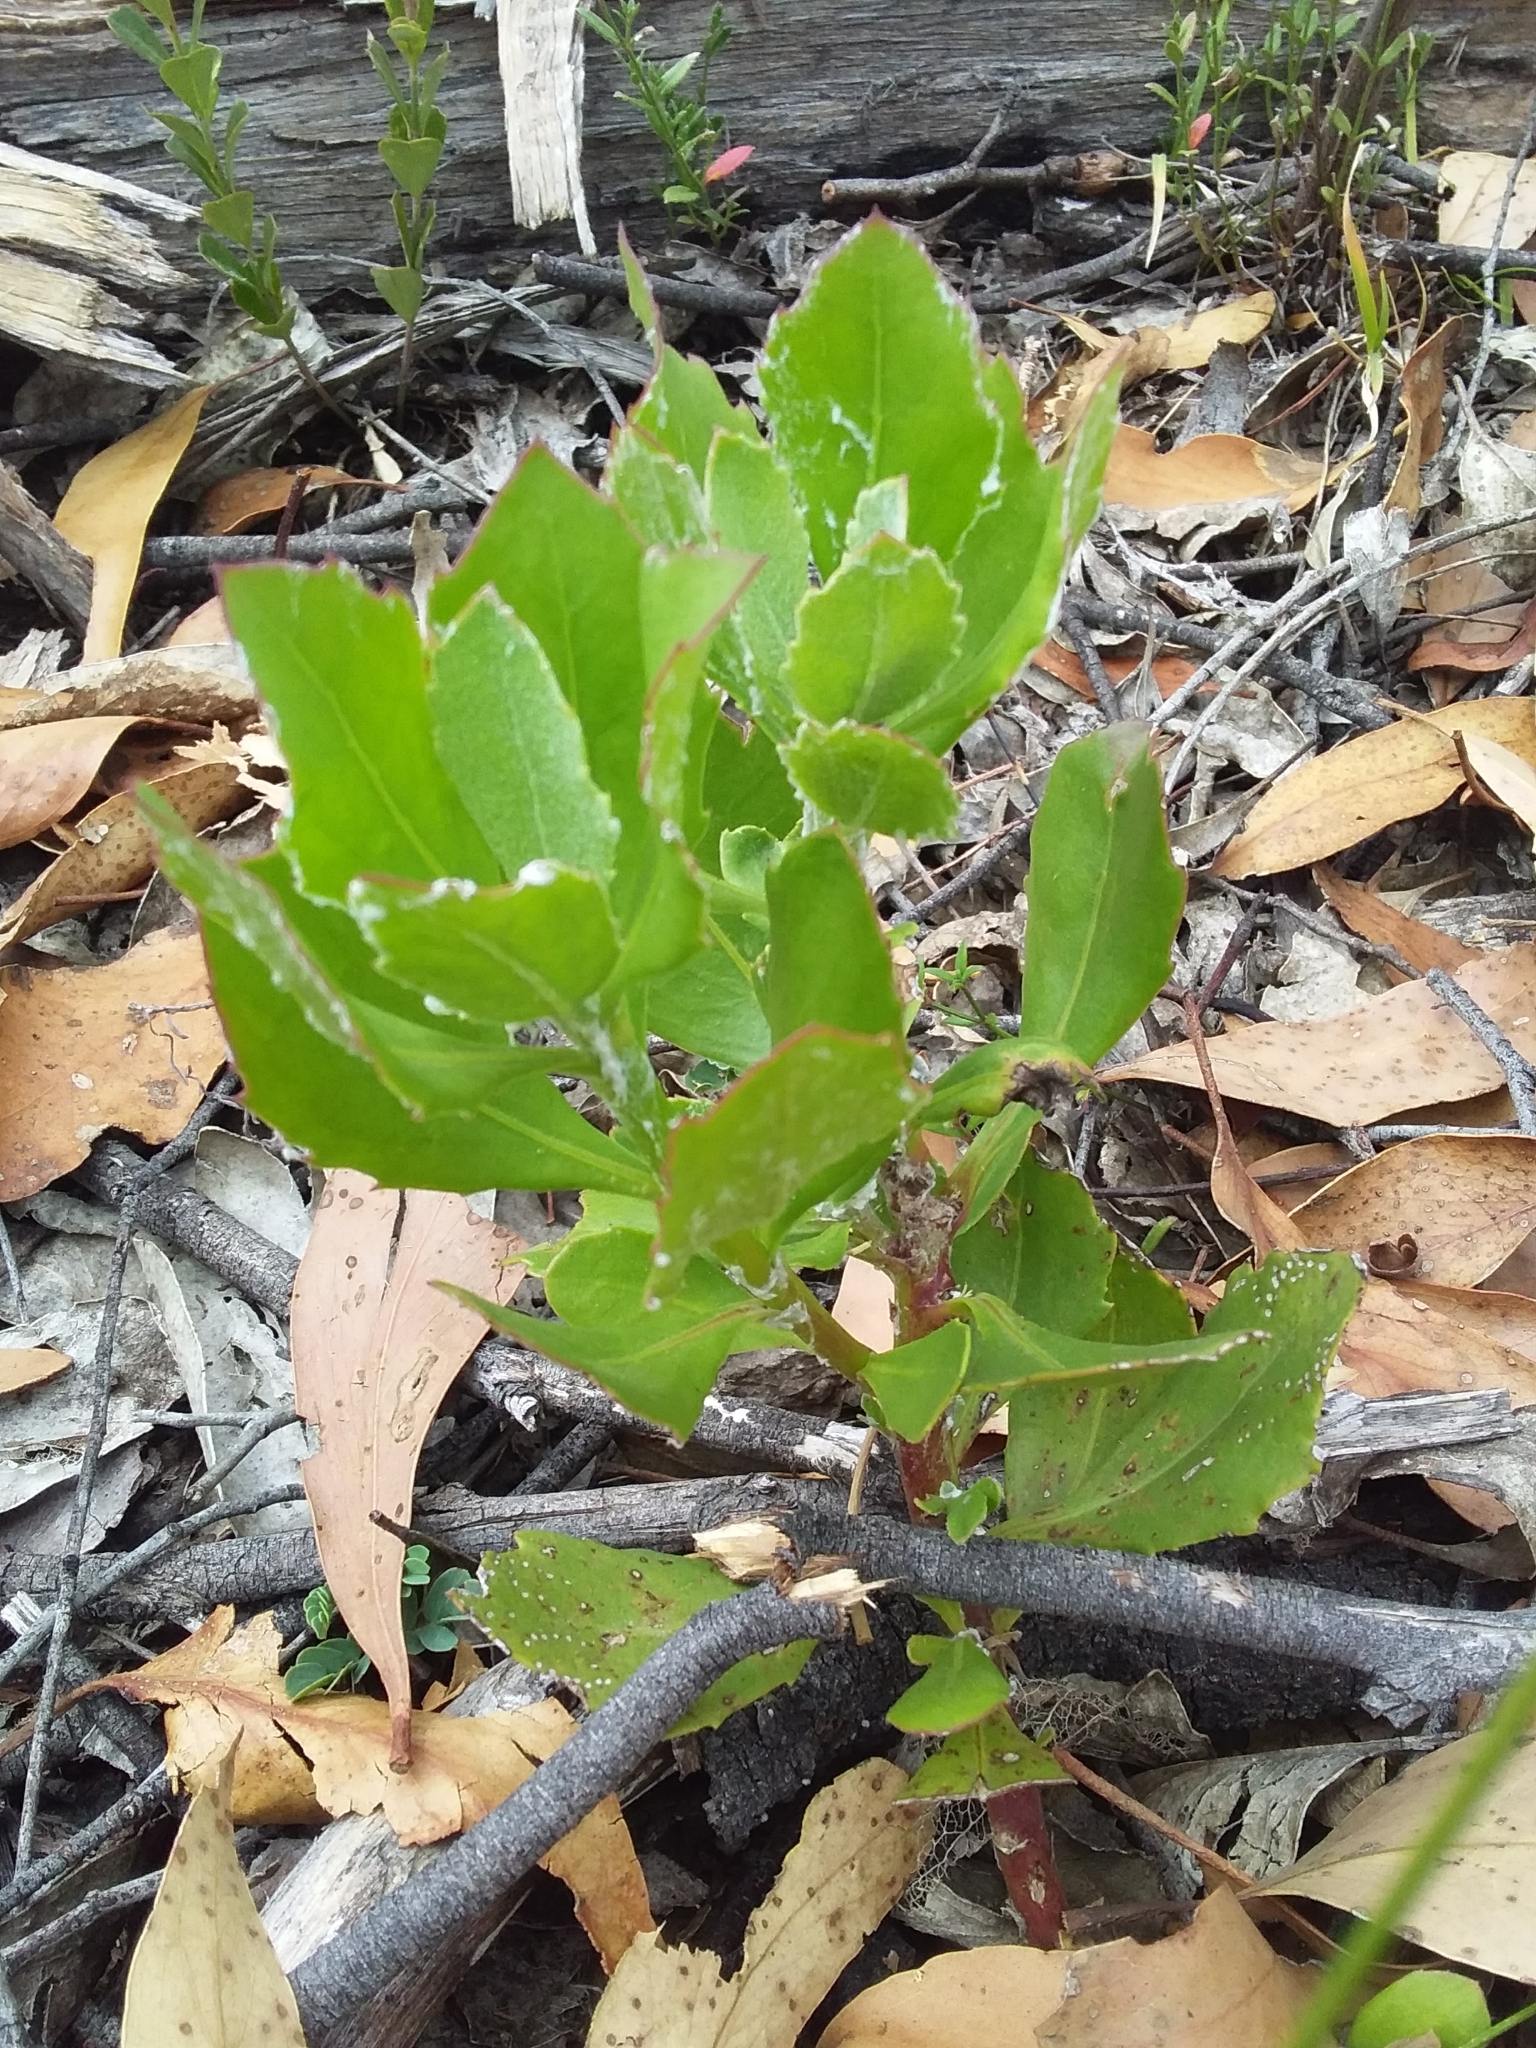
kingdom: Plantae
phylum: Tracheophyta
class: Magnoliopsida
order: Asterales
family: Asteraceae
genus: Osteospermum
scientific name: Osteospermum moniliferum
